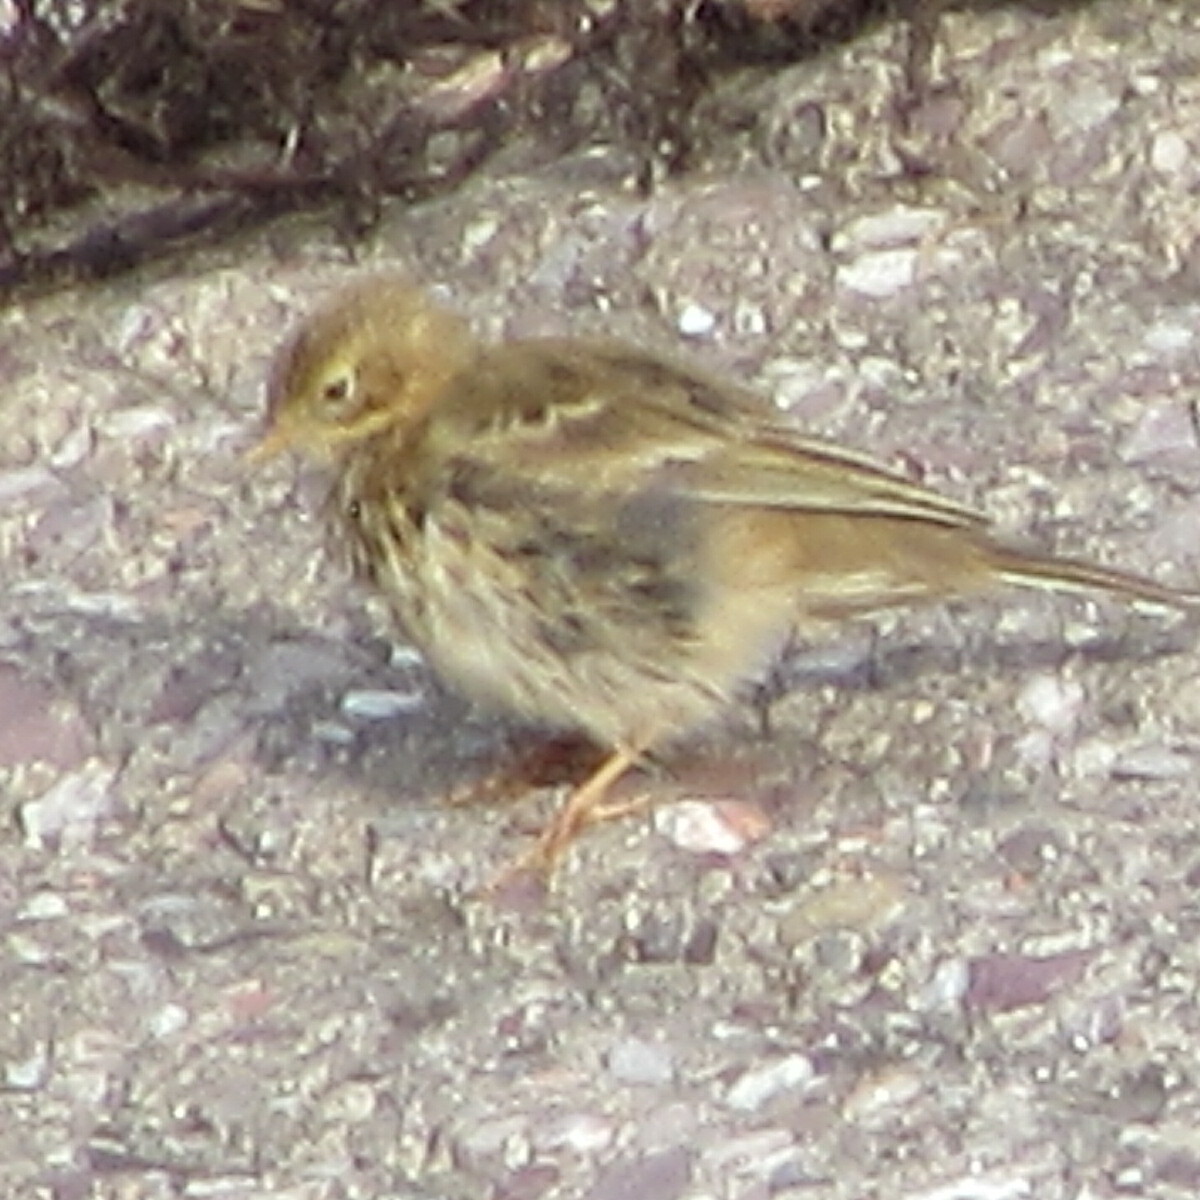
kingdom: Animalia
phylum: Chordata
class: Aves
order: Passeriformes
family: Motacillidae
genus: Anthus
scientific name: Anthus pratensis
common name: Meadow pipit
